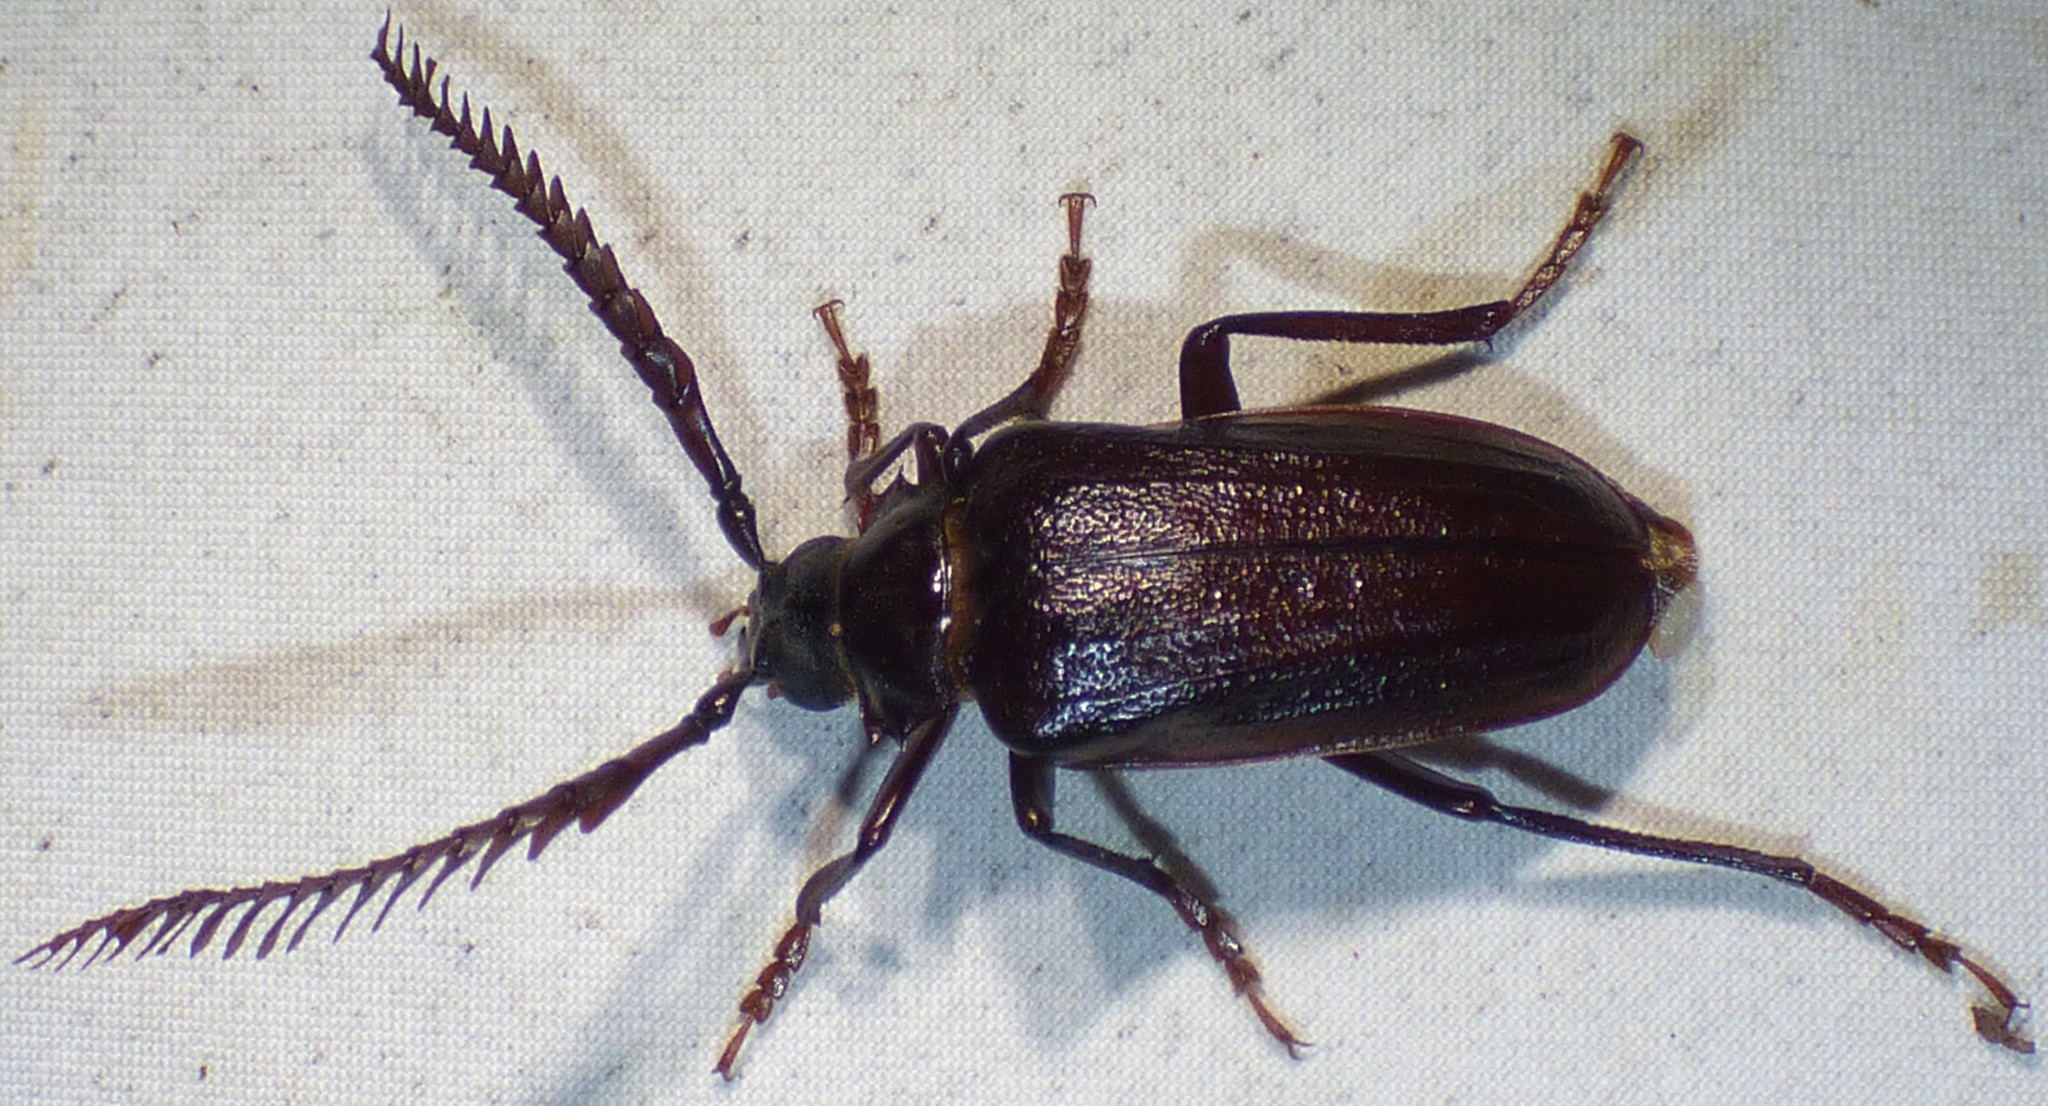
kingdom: Animalia
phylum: Arthropoda
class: Insecta
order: Coleoptera
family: Cerambycidae
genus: Prionus
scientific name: Prionus imbricornis
